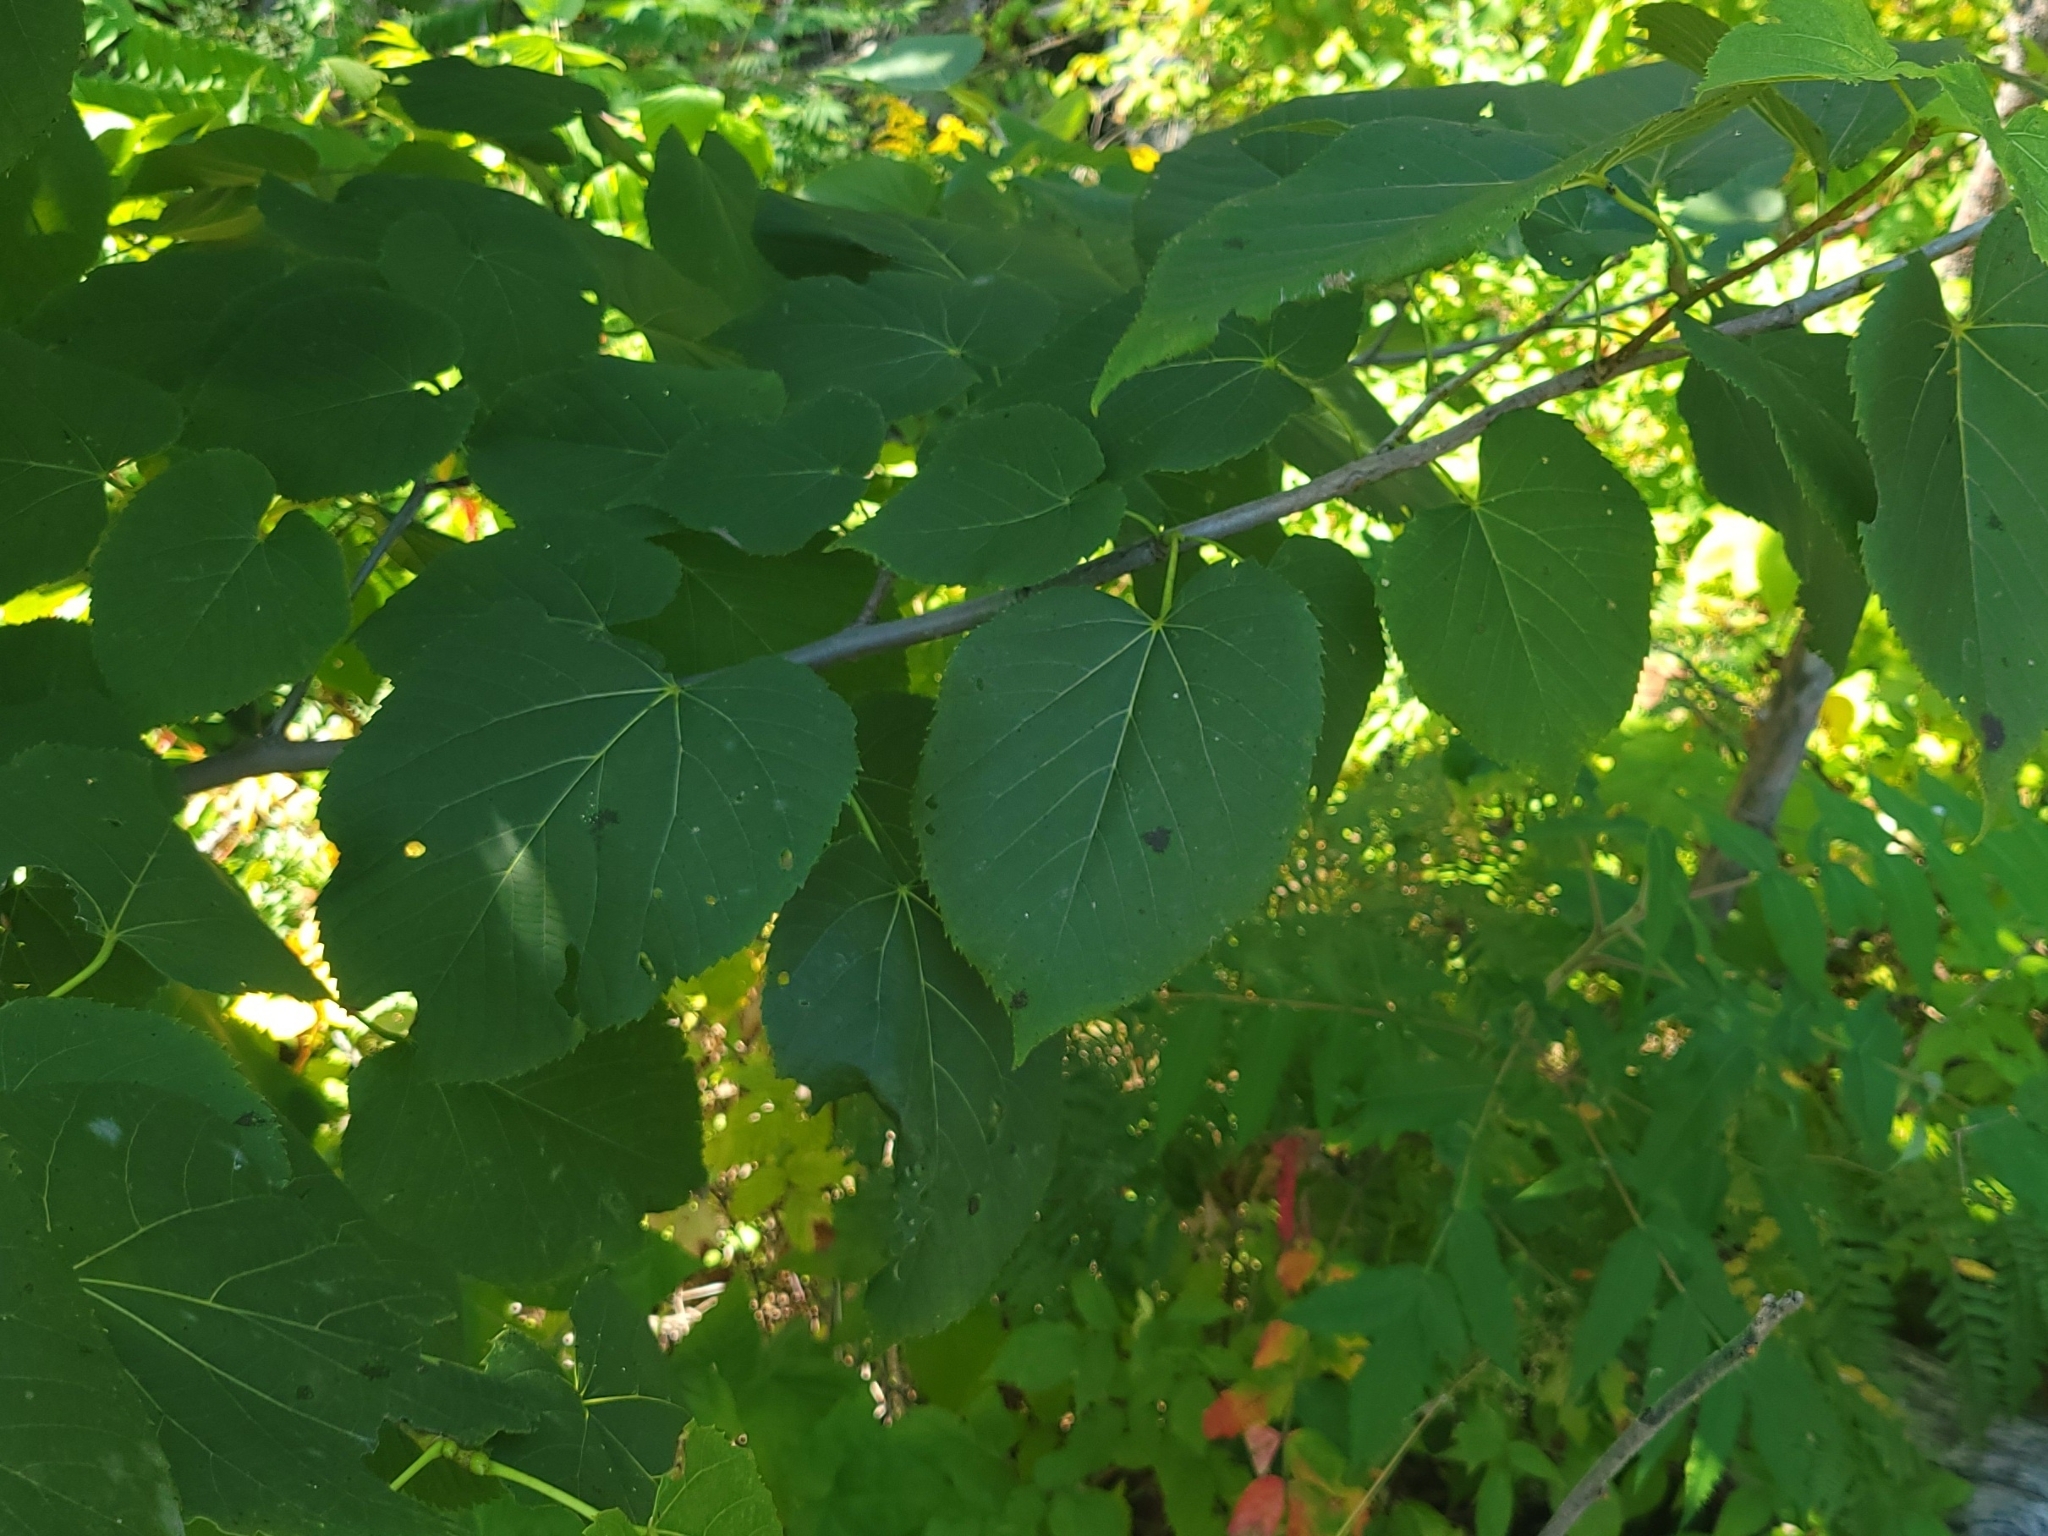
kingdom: Plantae
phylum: Tracheophyta
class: Magnoliopsida
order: Malvales
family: Malvaceae
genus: Tilia
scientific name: Tilia americana
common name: Basswood
